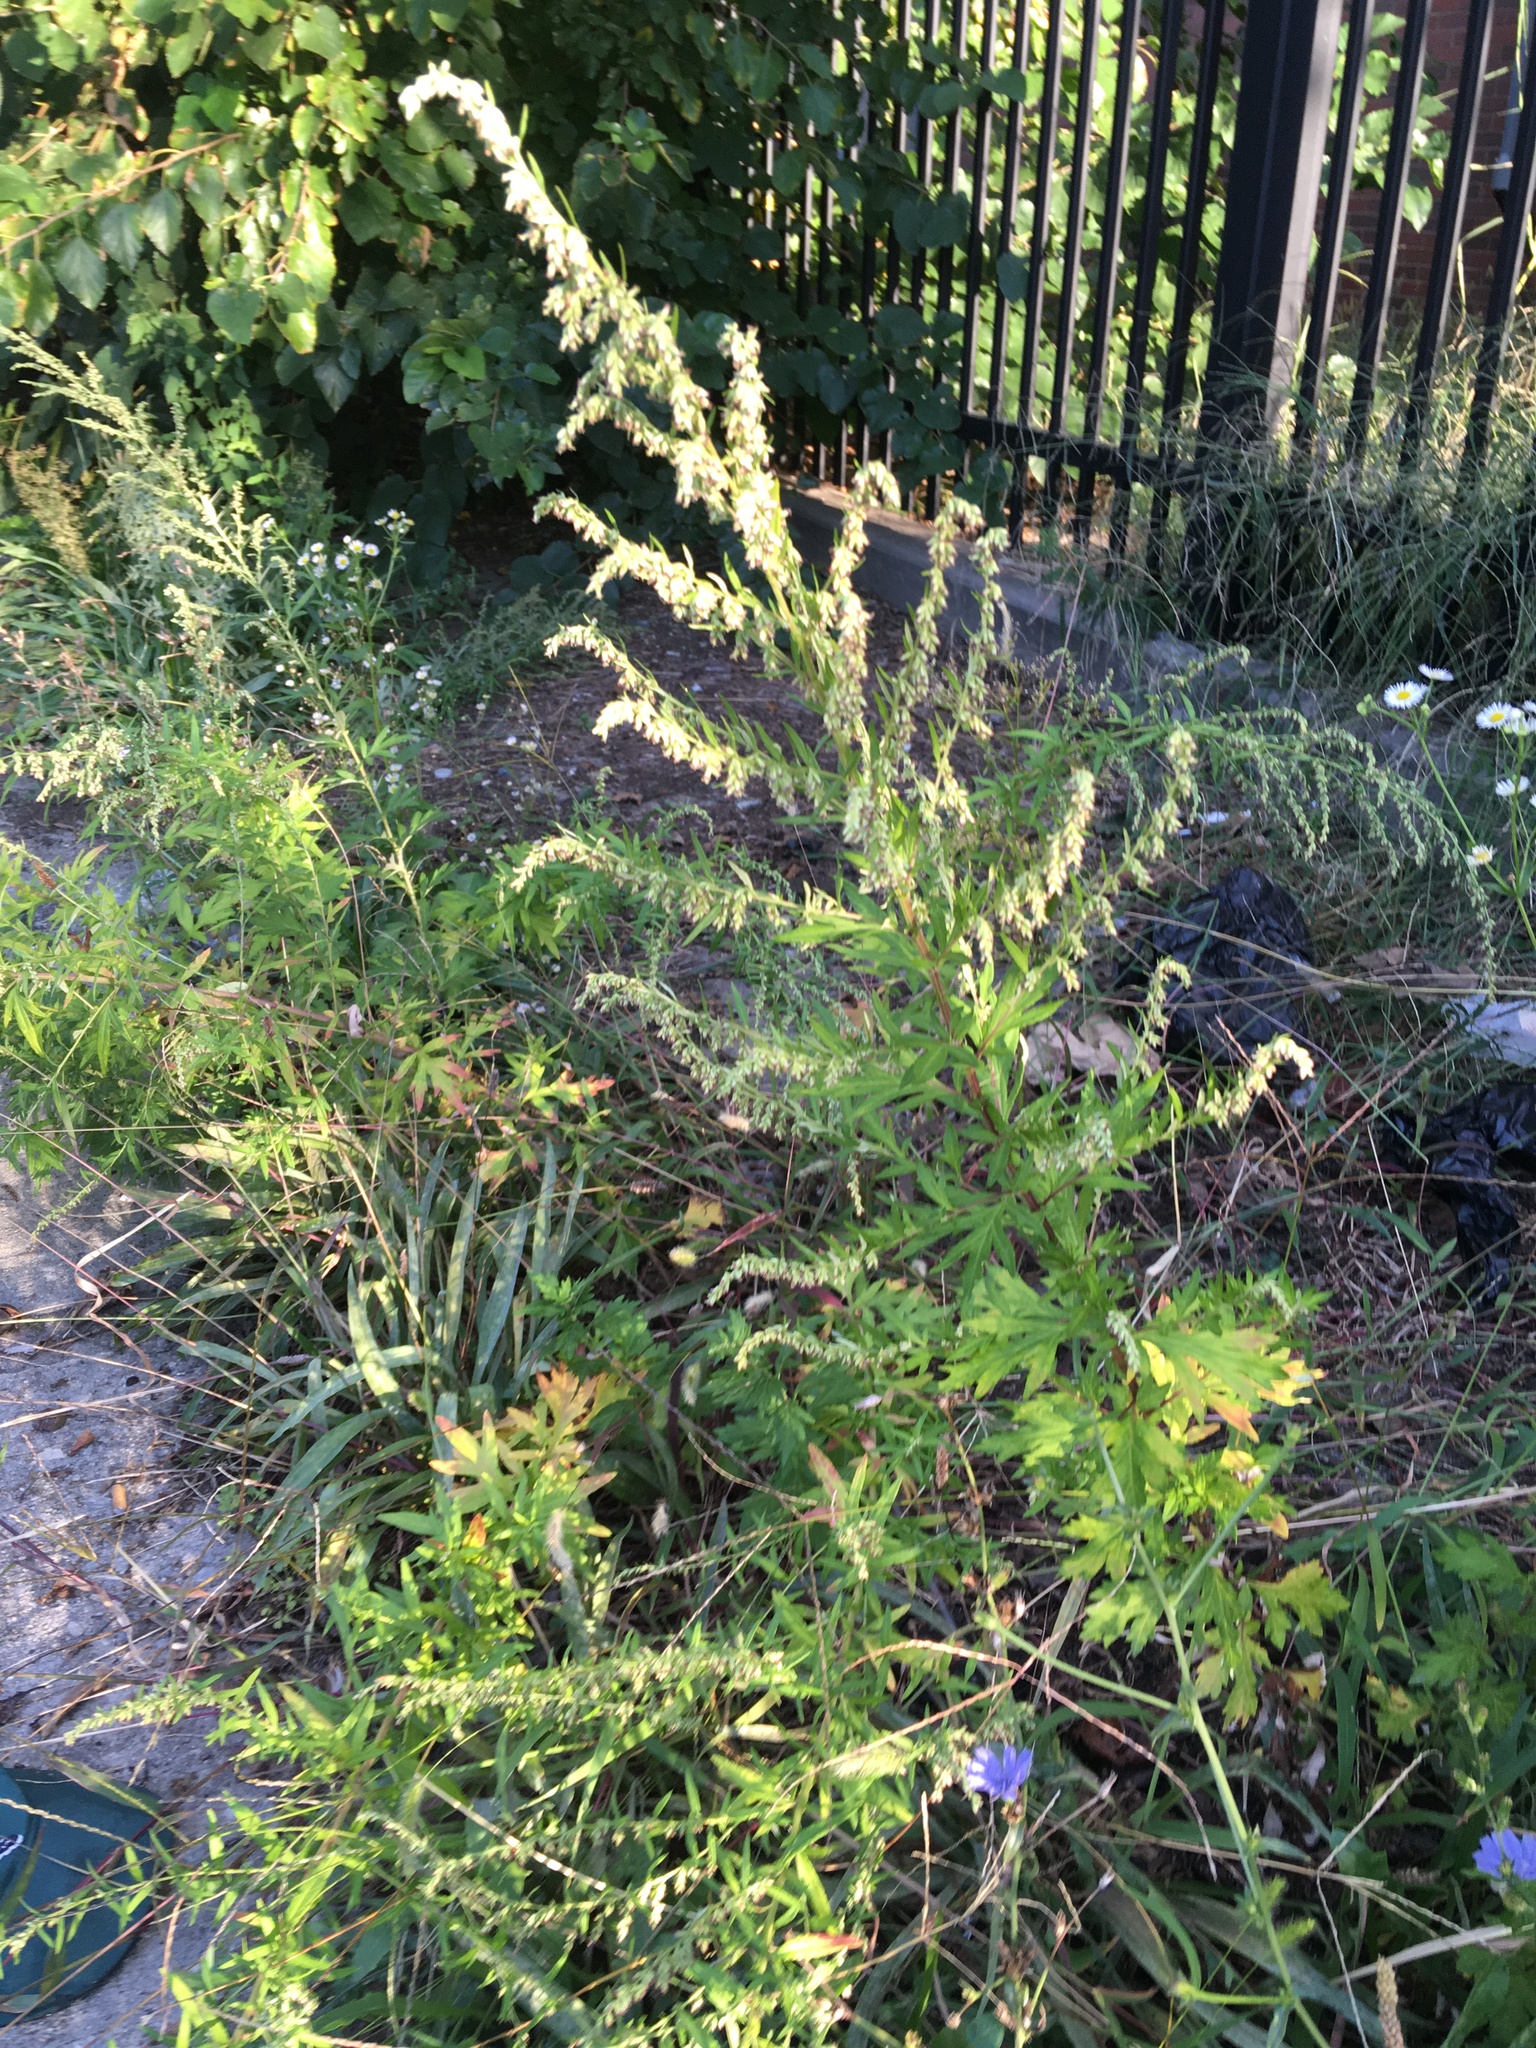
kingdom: Plantae
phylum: Tracheophyta
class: Magnoliopsida
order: Asterales
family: Asteraceae
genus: Artemisia
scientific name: Artemisia vulgaris
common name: Mugwort
